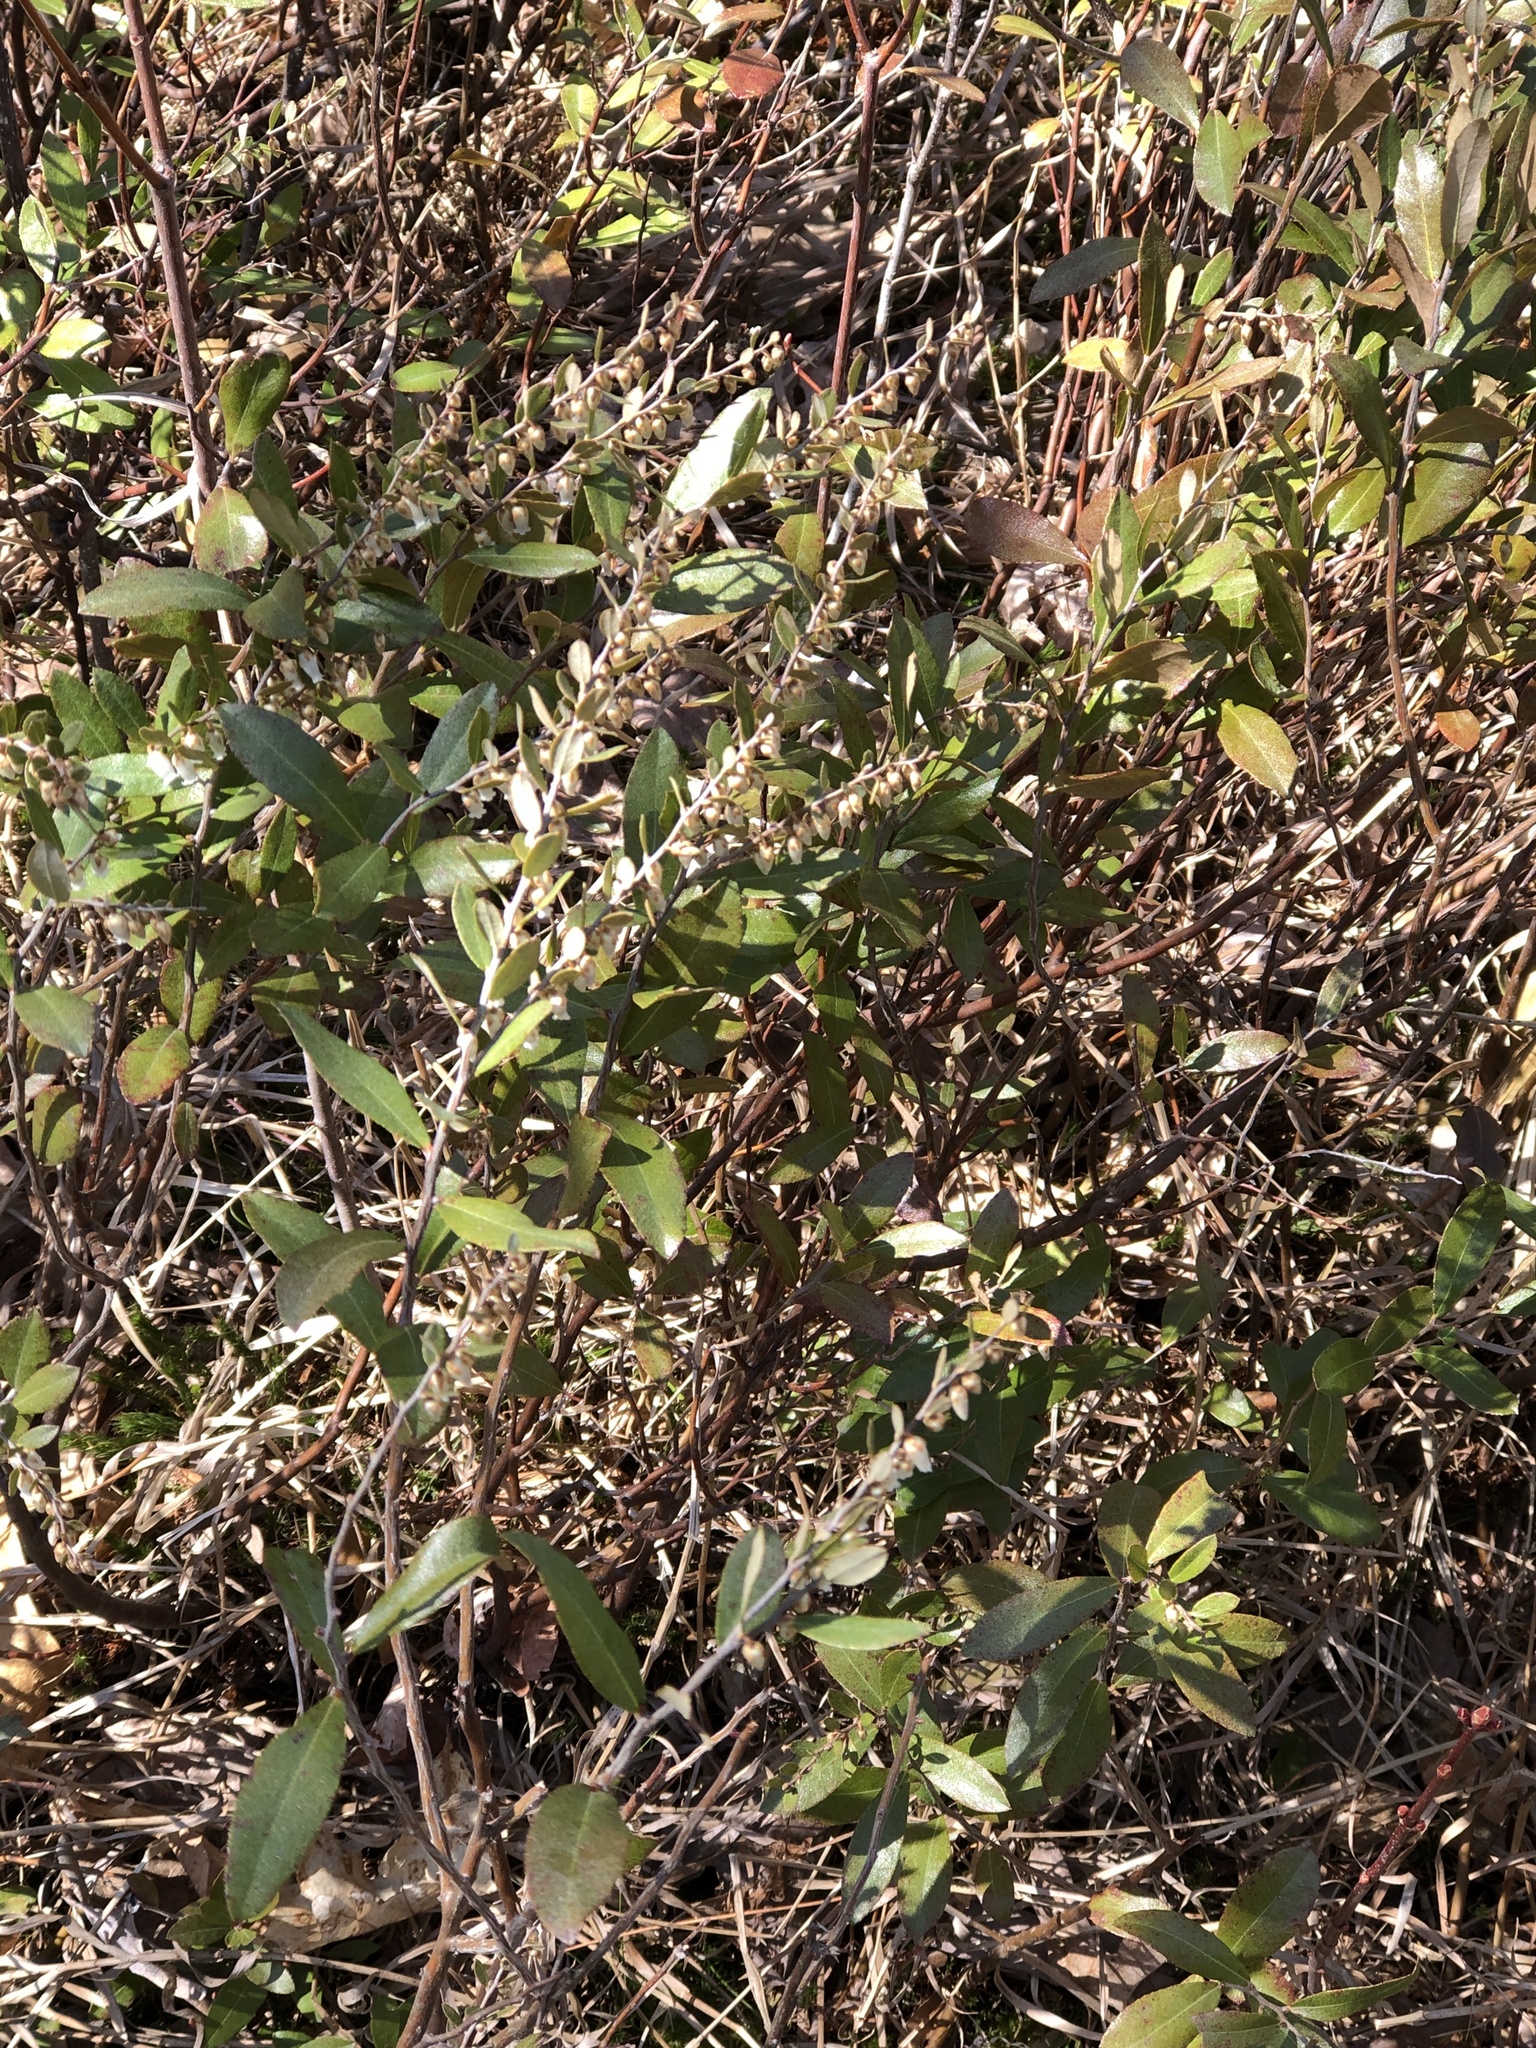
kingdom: Plantae
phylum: Tracheophyta
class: Magnoliopsida
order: Ericales
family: Ericaceae
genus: Chamaedaphne
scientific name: Chamaedaphne calyculata
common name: Leatherleaf
